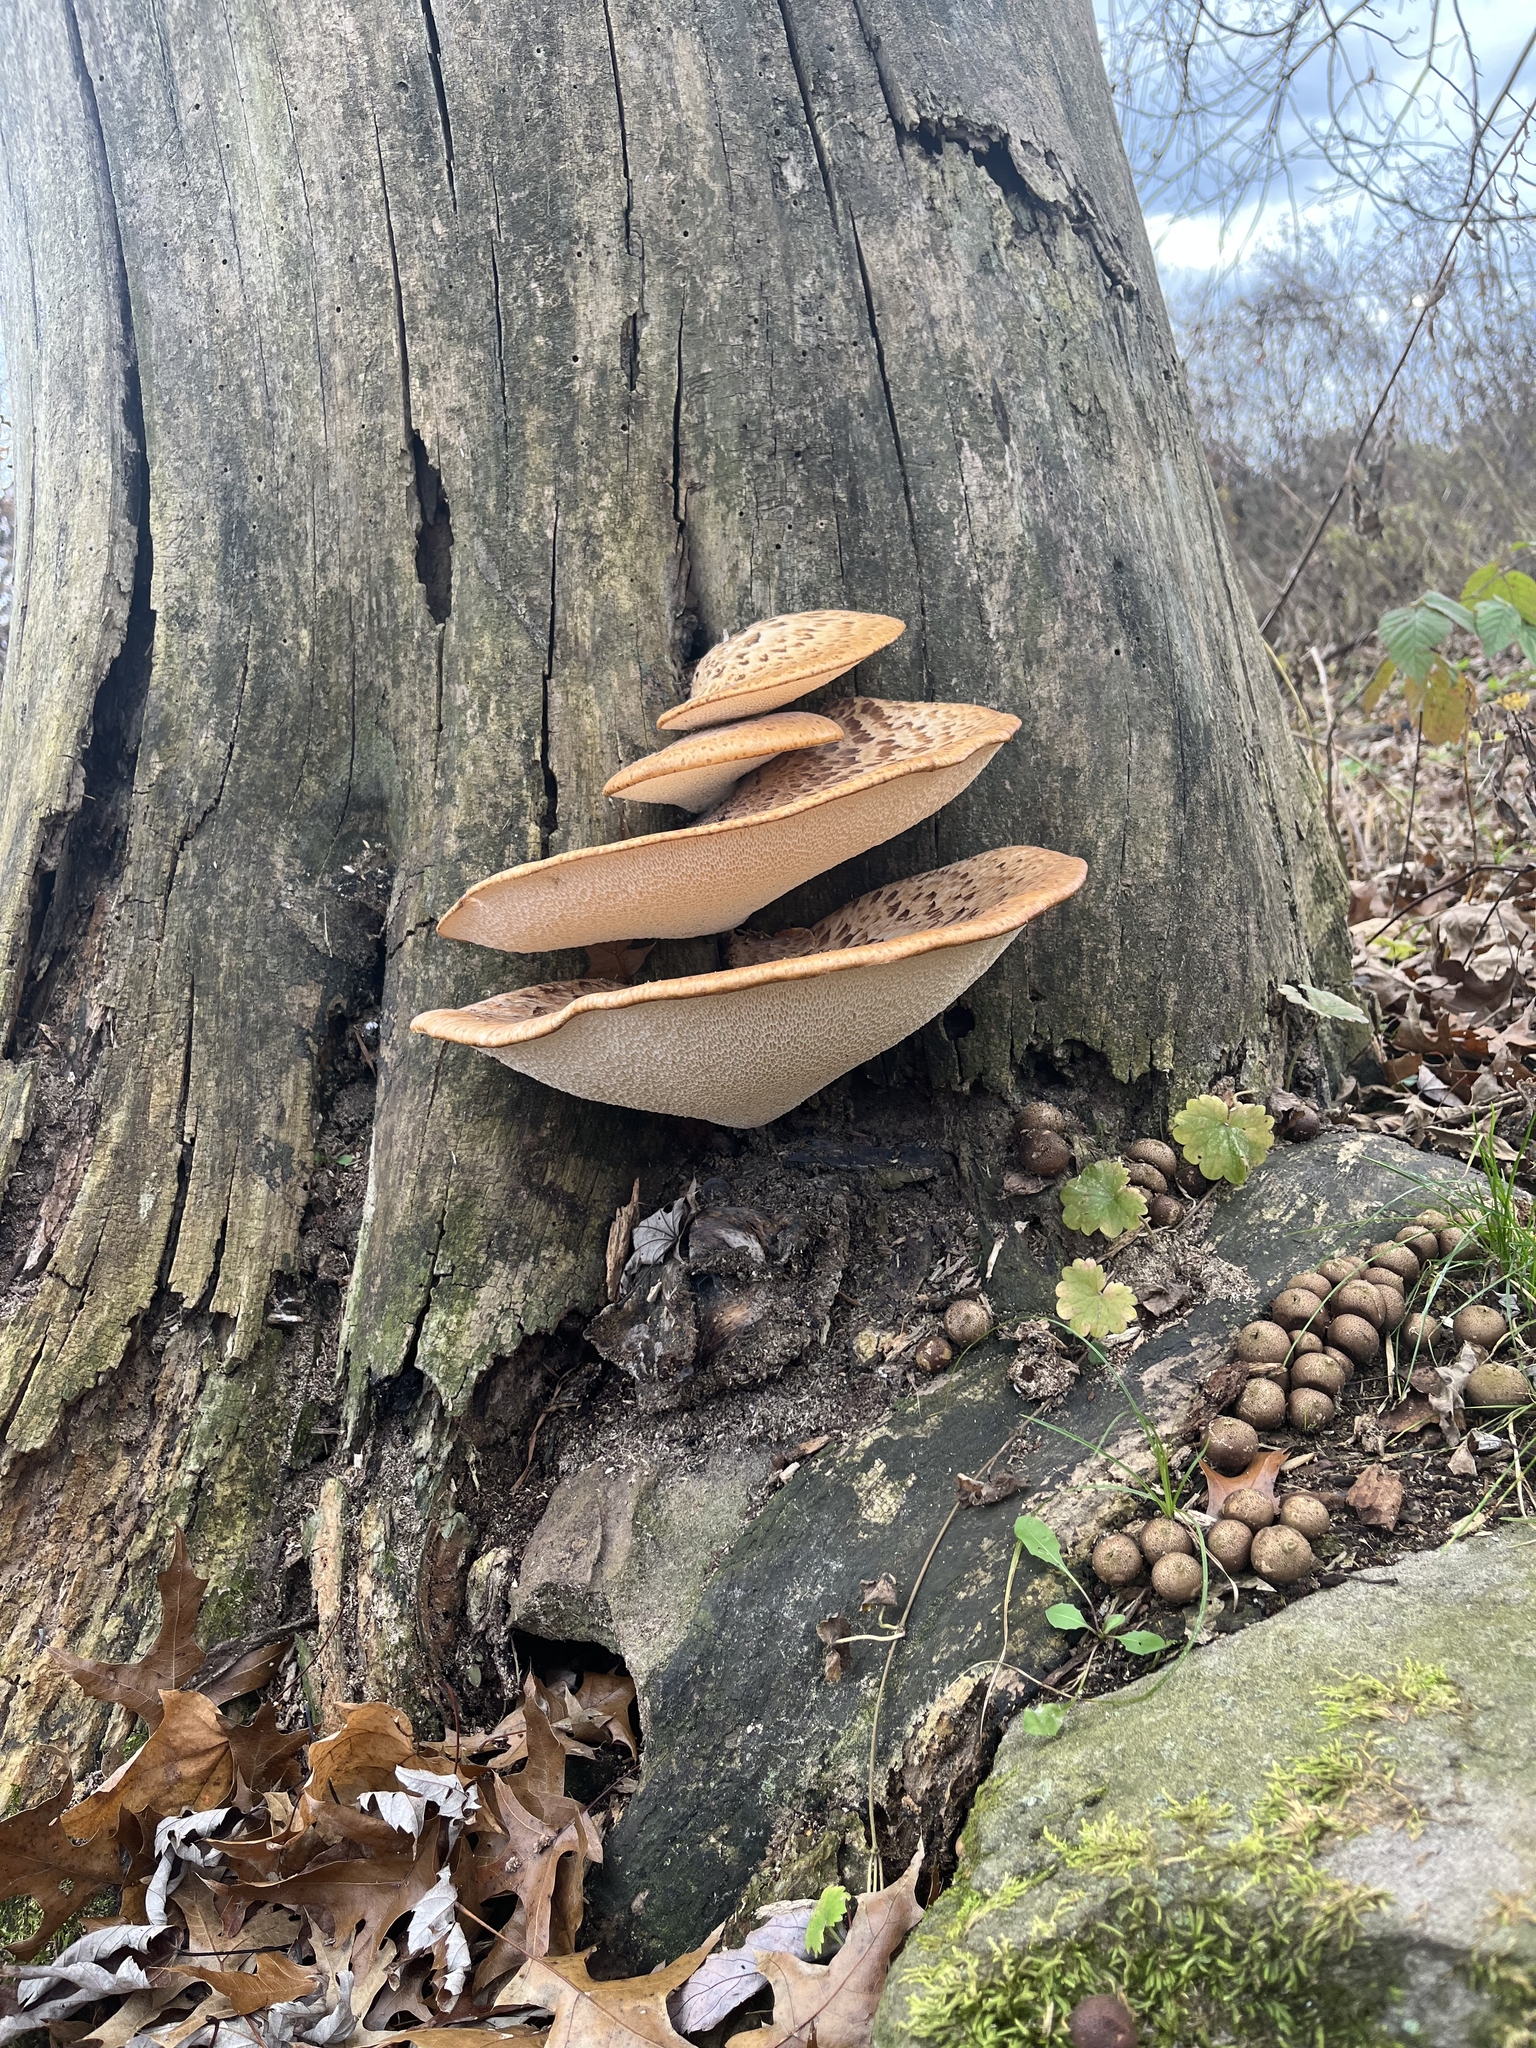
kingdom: Fungi
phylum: Basidiomycota
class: Agaricomycetes
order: Polyporales
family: Polyporaceae
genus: Cerioporus
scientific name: Cerioporus squamosus
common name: Dryad's saddle
